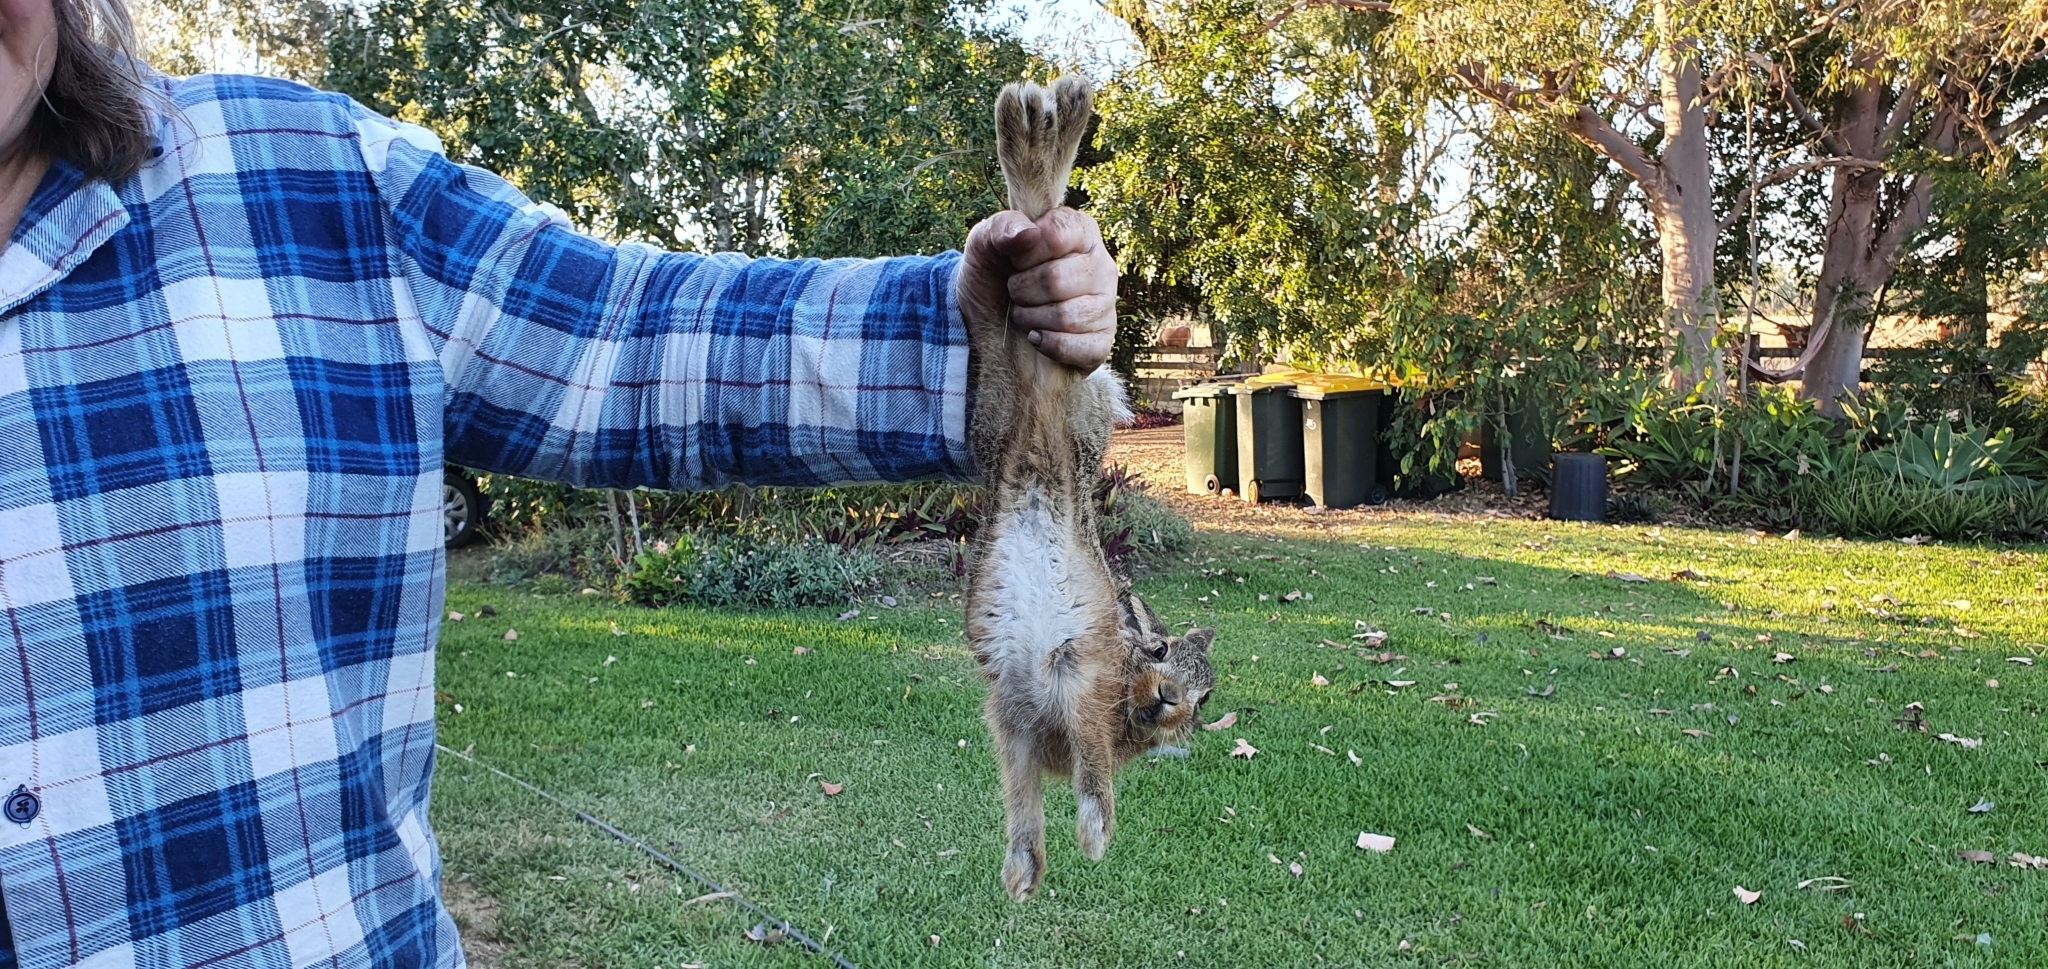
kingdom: Animalia
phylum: Chordata
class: Mammalia
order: Lagomorpha
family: Leporidae
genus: Lepus
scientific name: Lepus europaeus
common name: European hare
